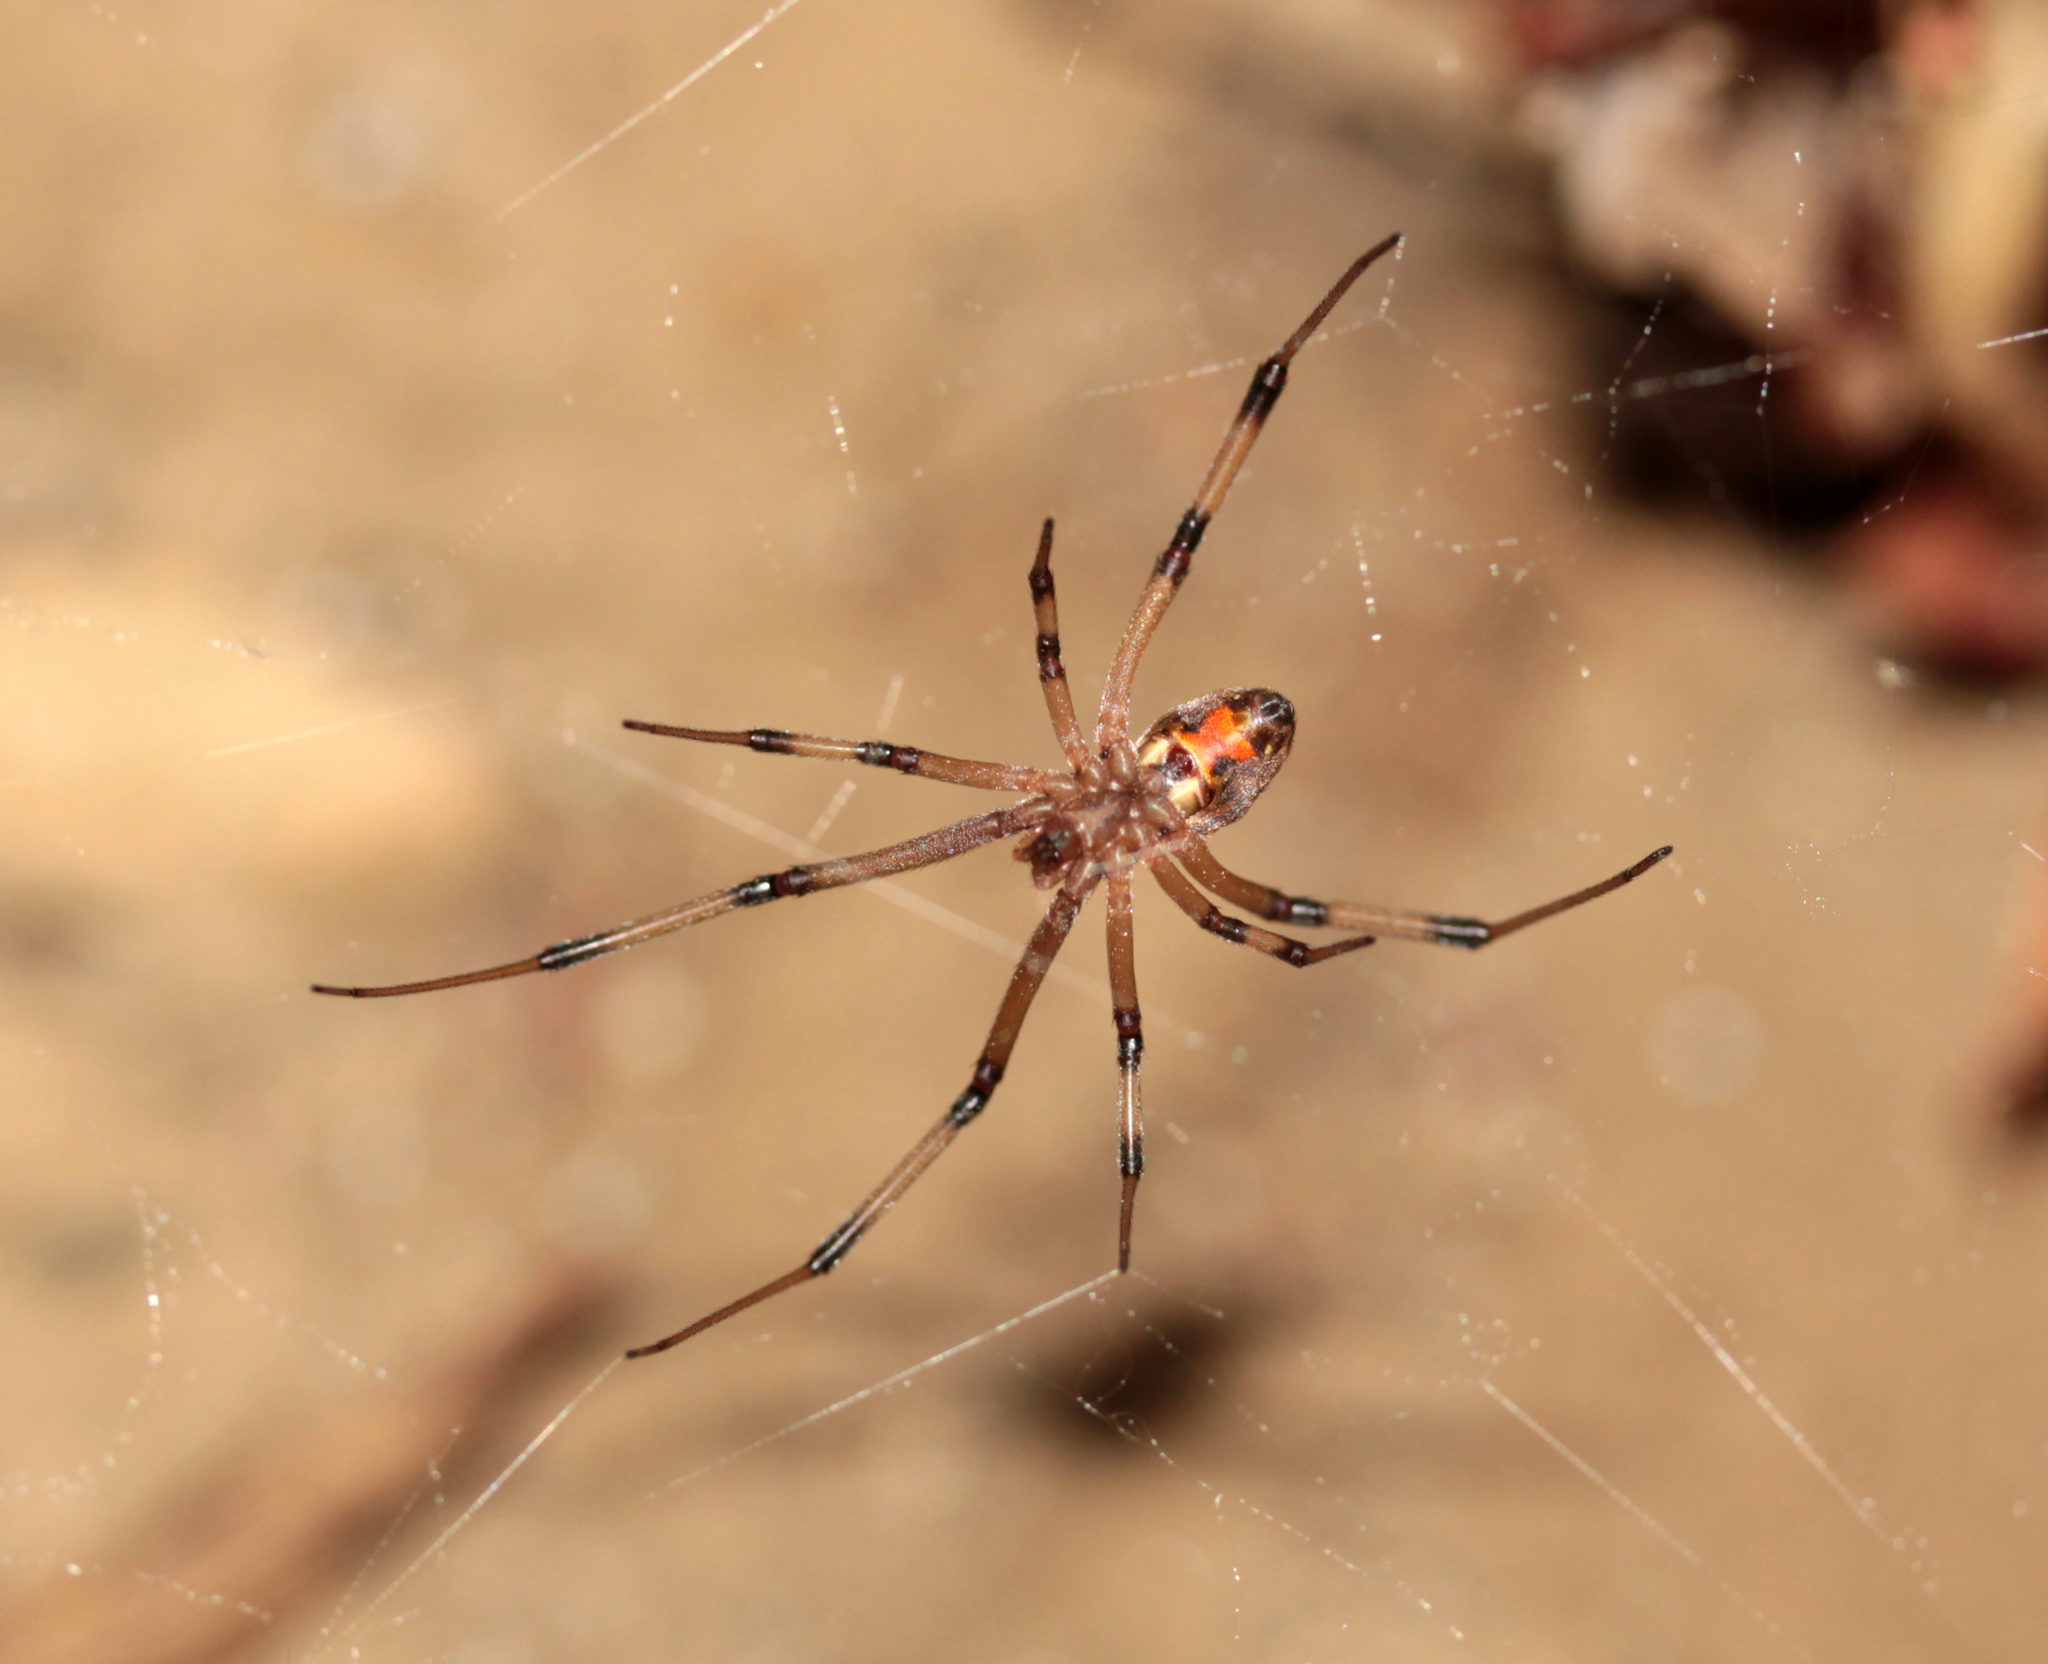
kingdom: Animalia
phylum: Arthropoda
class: Arachnida
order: Araneae
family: Theridiidae
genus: Latrodectus
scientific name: Latrodectus geometricus
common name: Brown widow spider
